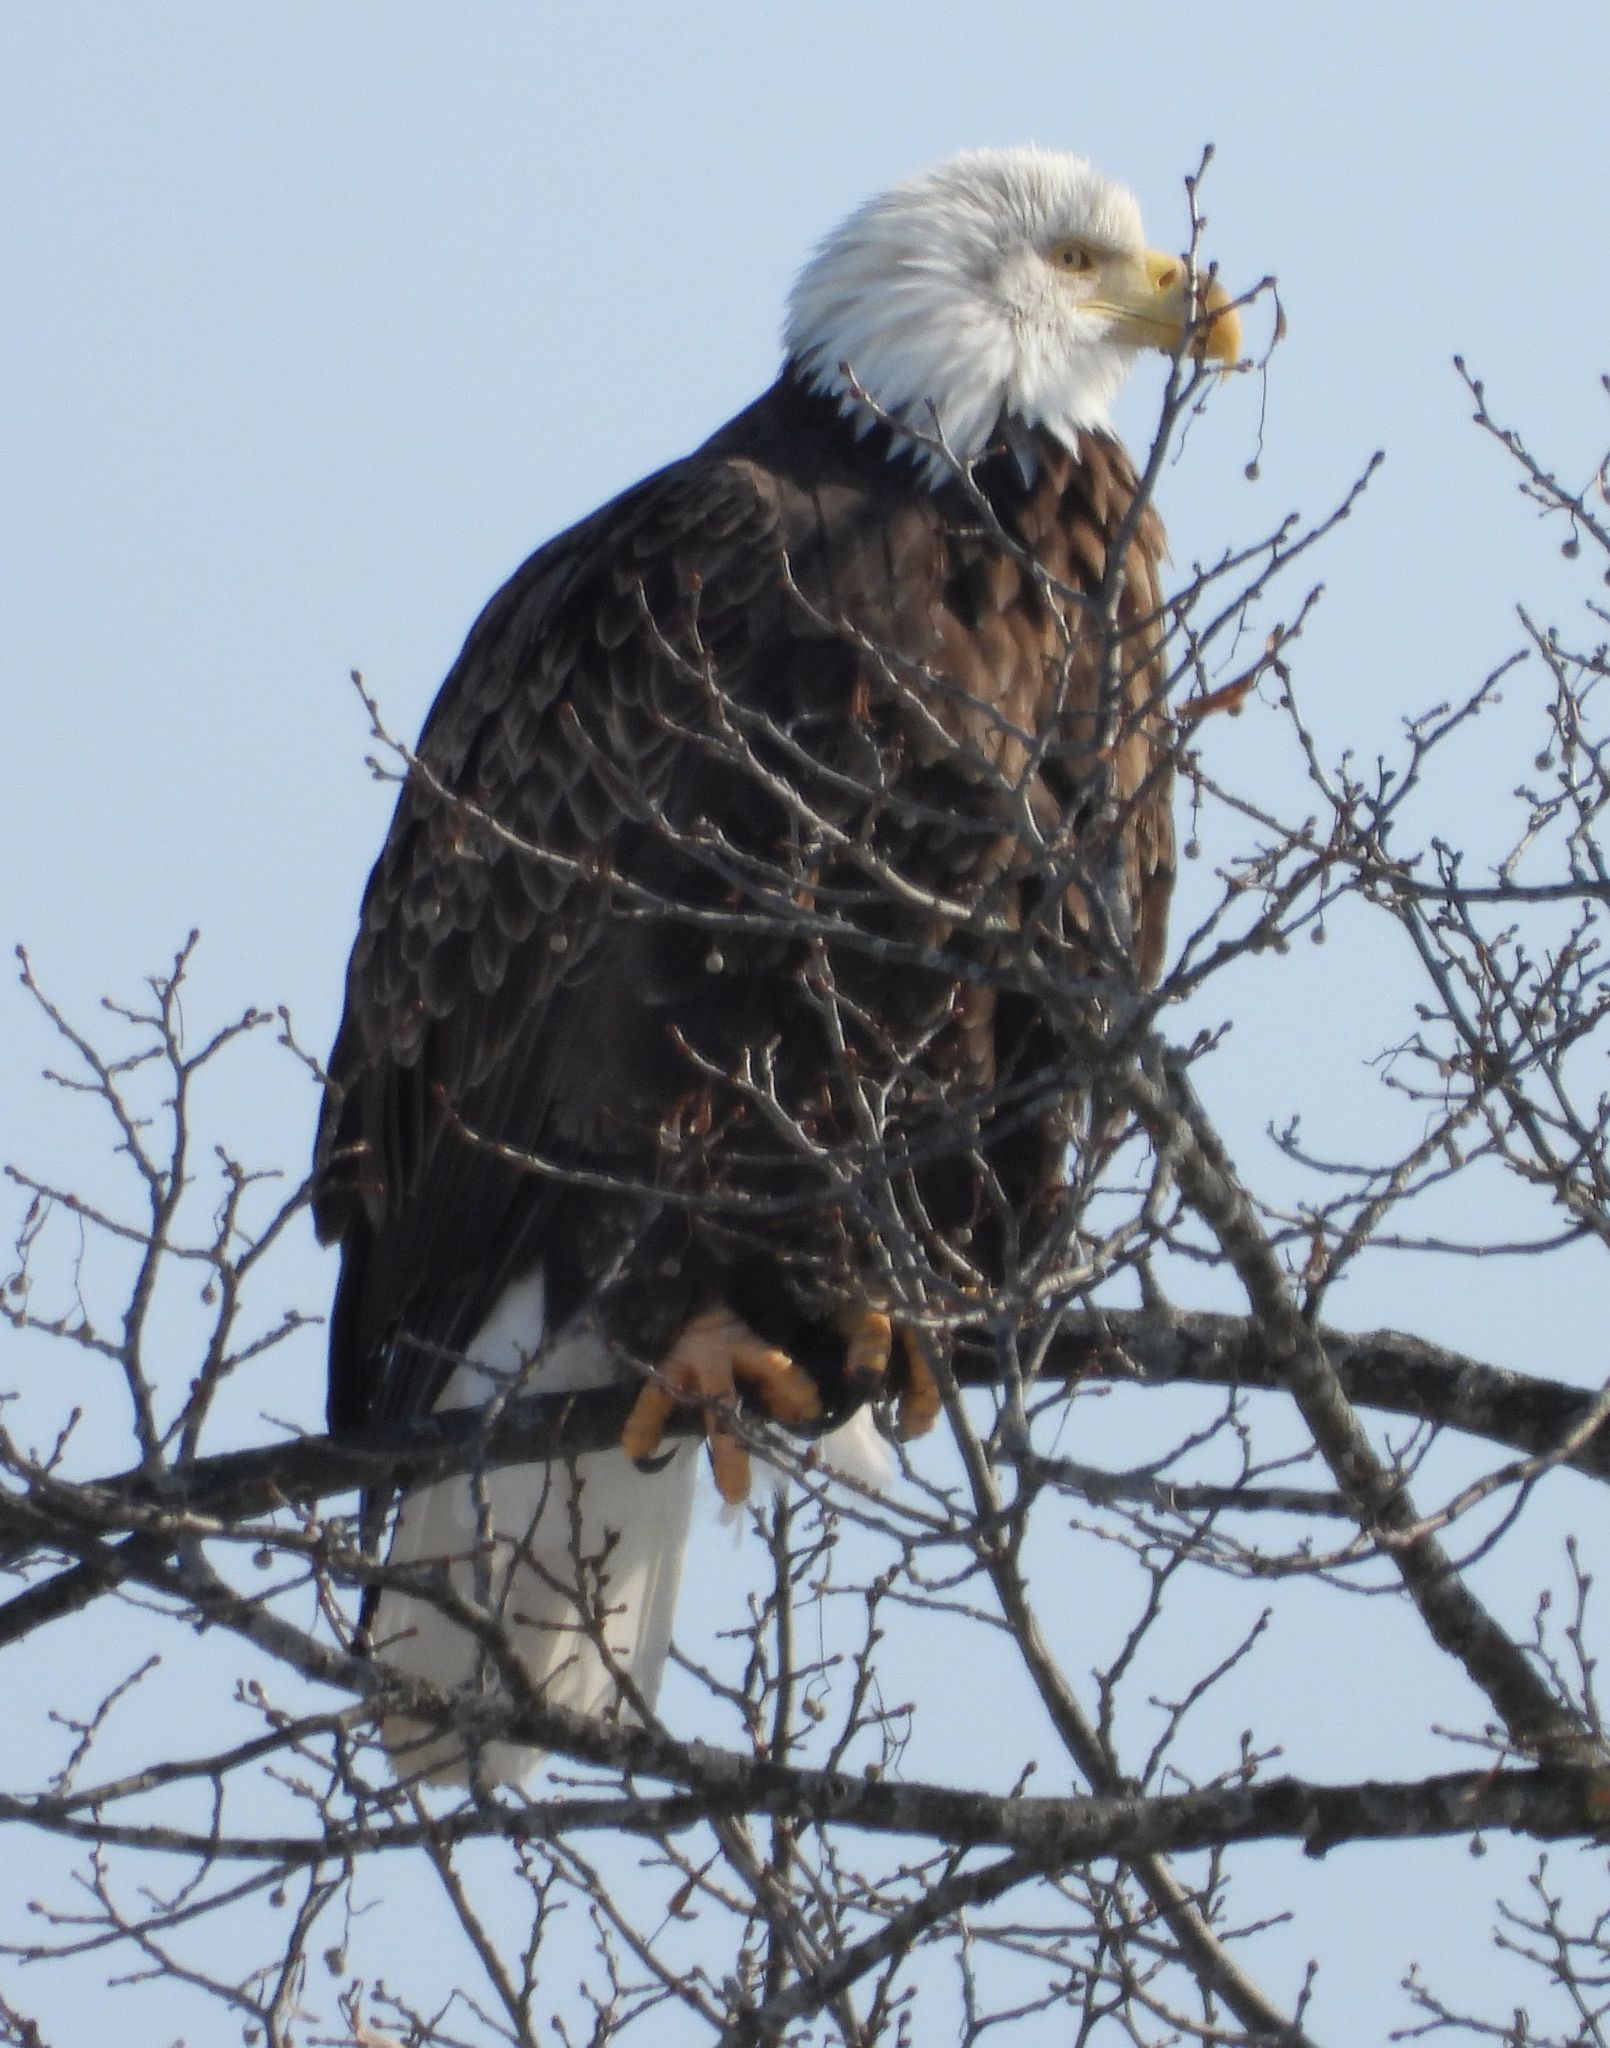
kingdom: Animalia
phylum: Chordata
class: Aves
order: Accipitriformes
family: Accipitridae
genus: Haliaeetus
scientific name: Haliaeetus leucocephalus
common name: Bald eagle
